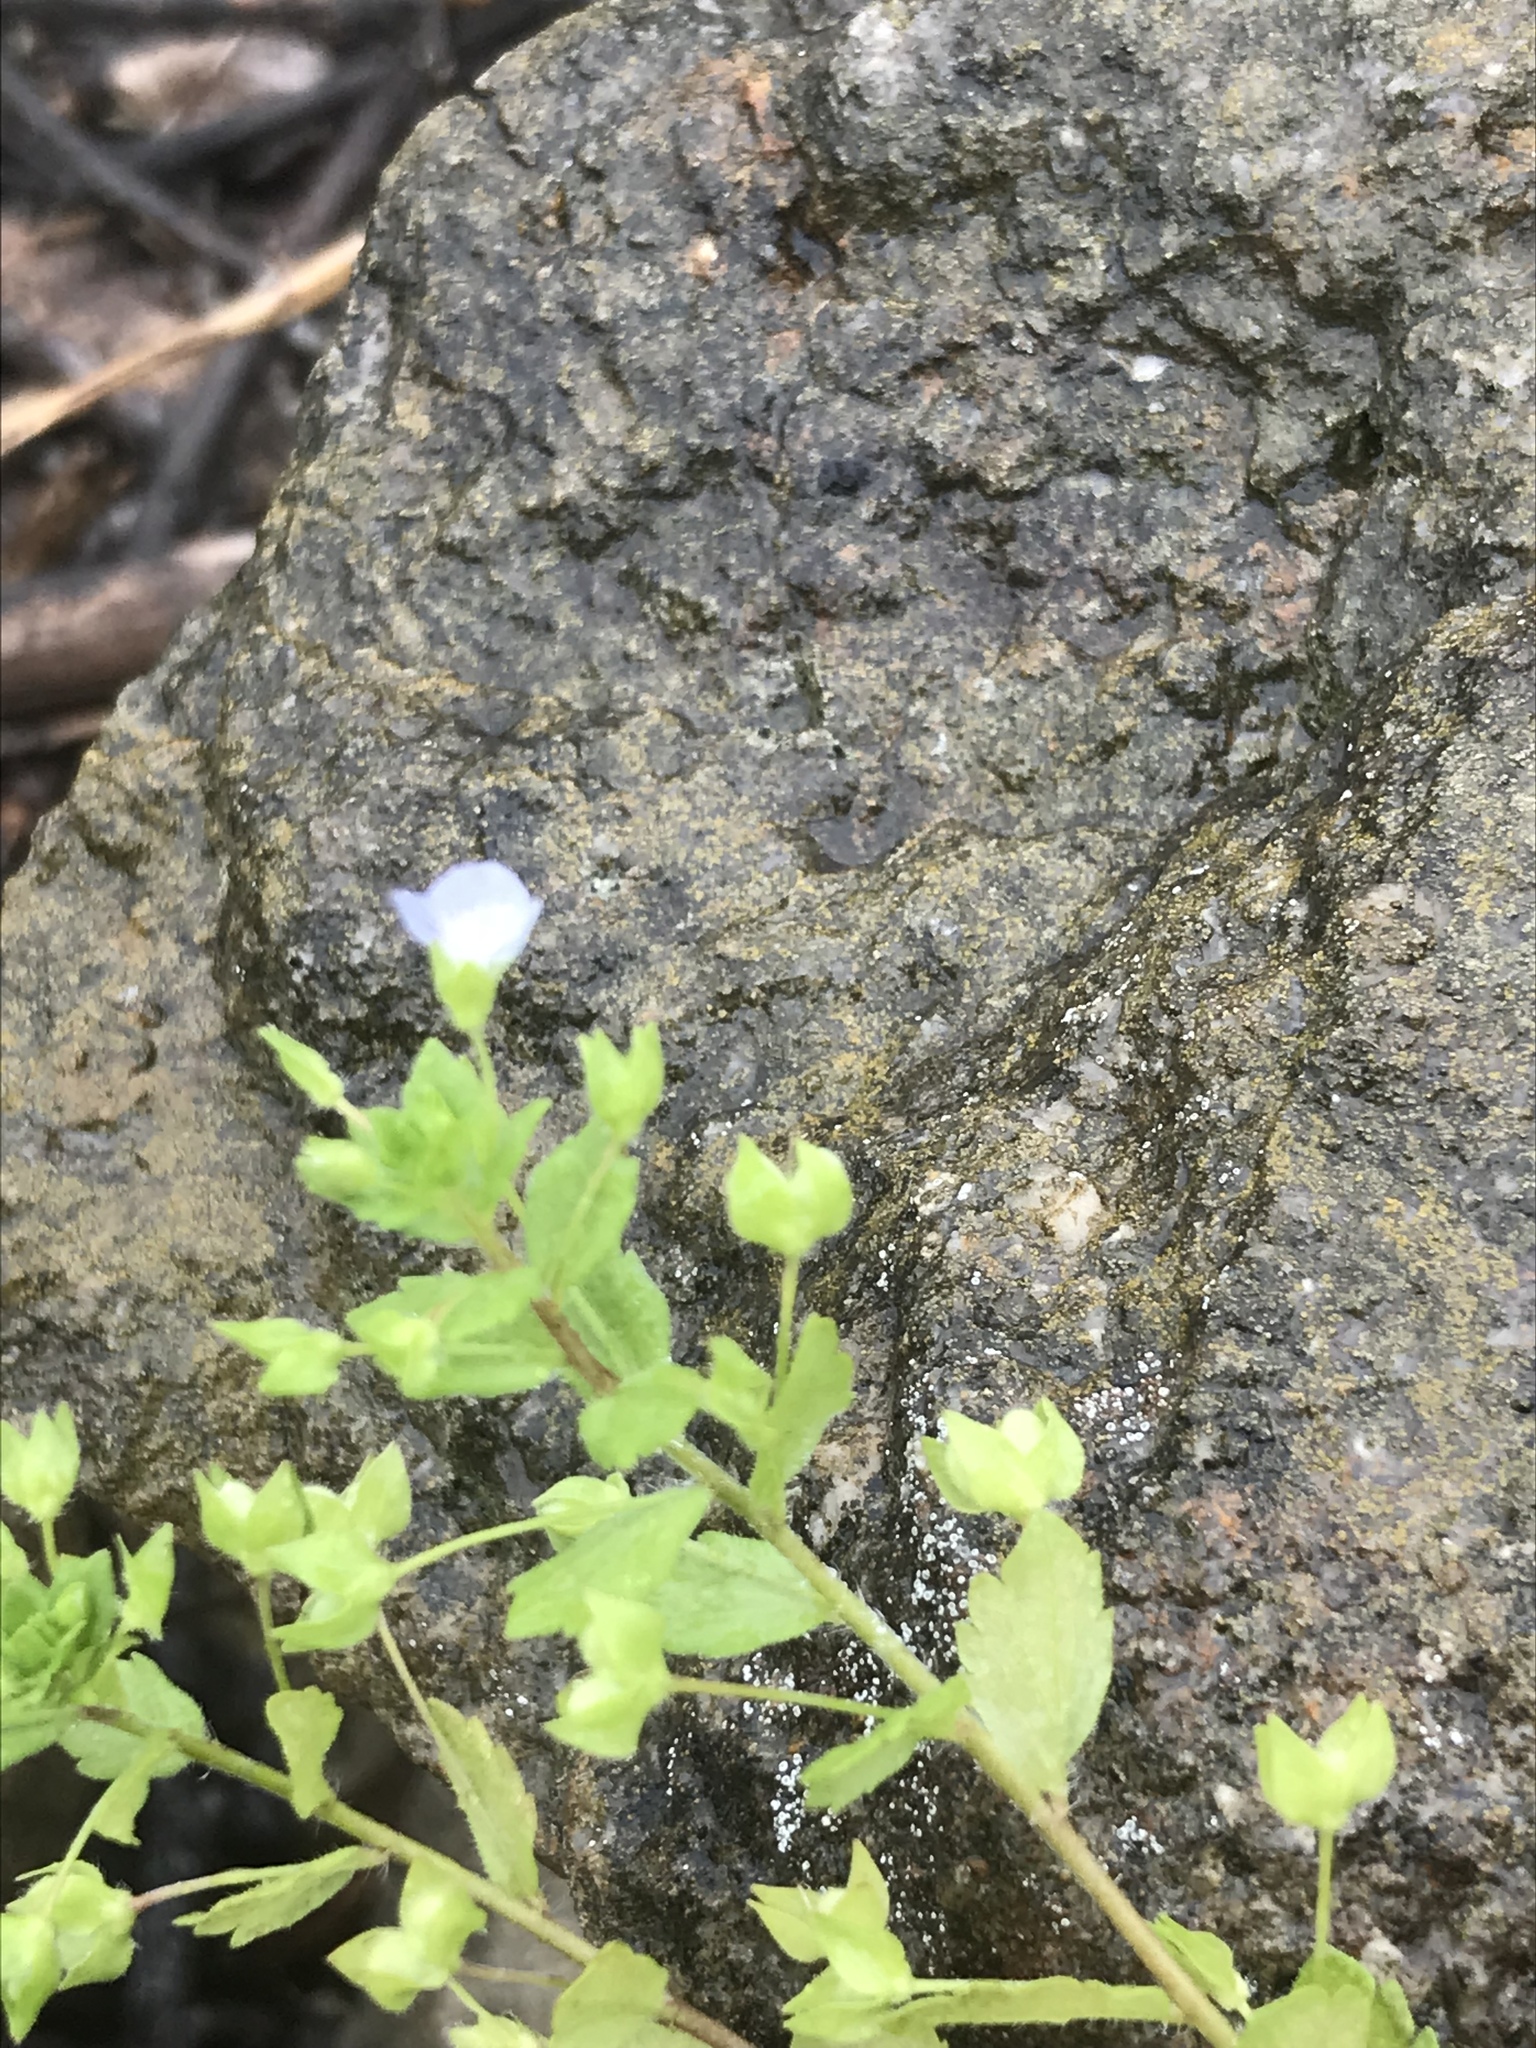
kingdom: Plantae
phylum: Tracheophyta
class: Magnoliopsida
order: Lamiales
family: Plantaginaceae
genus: Veronica
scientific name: Veronica persica
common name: Common field-speedwell
